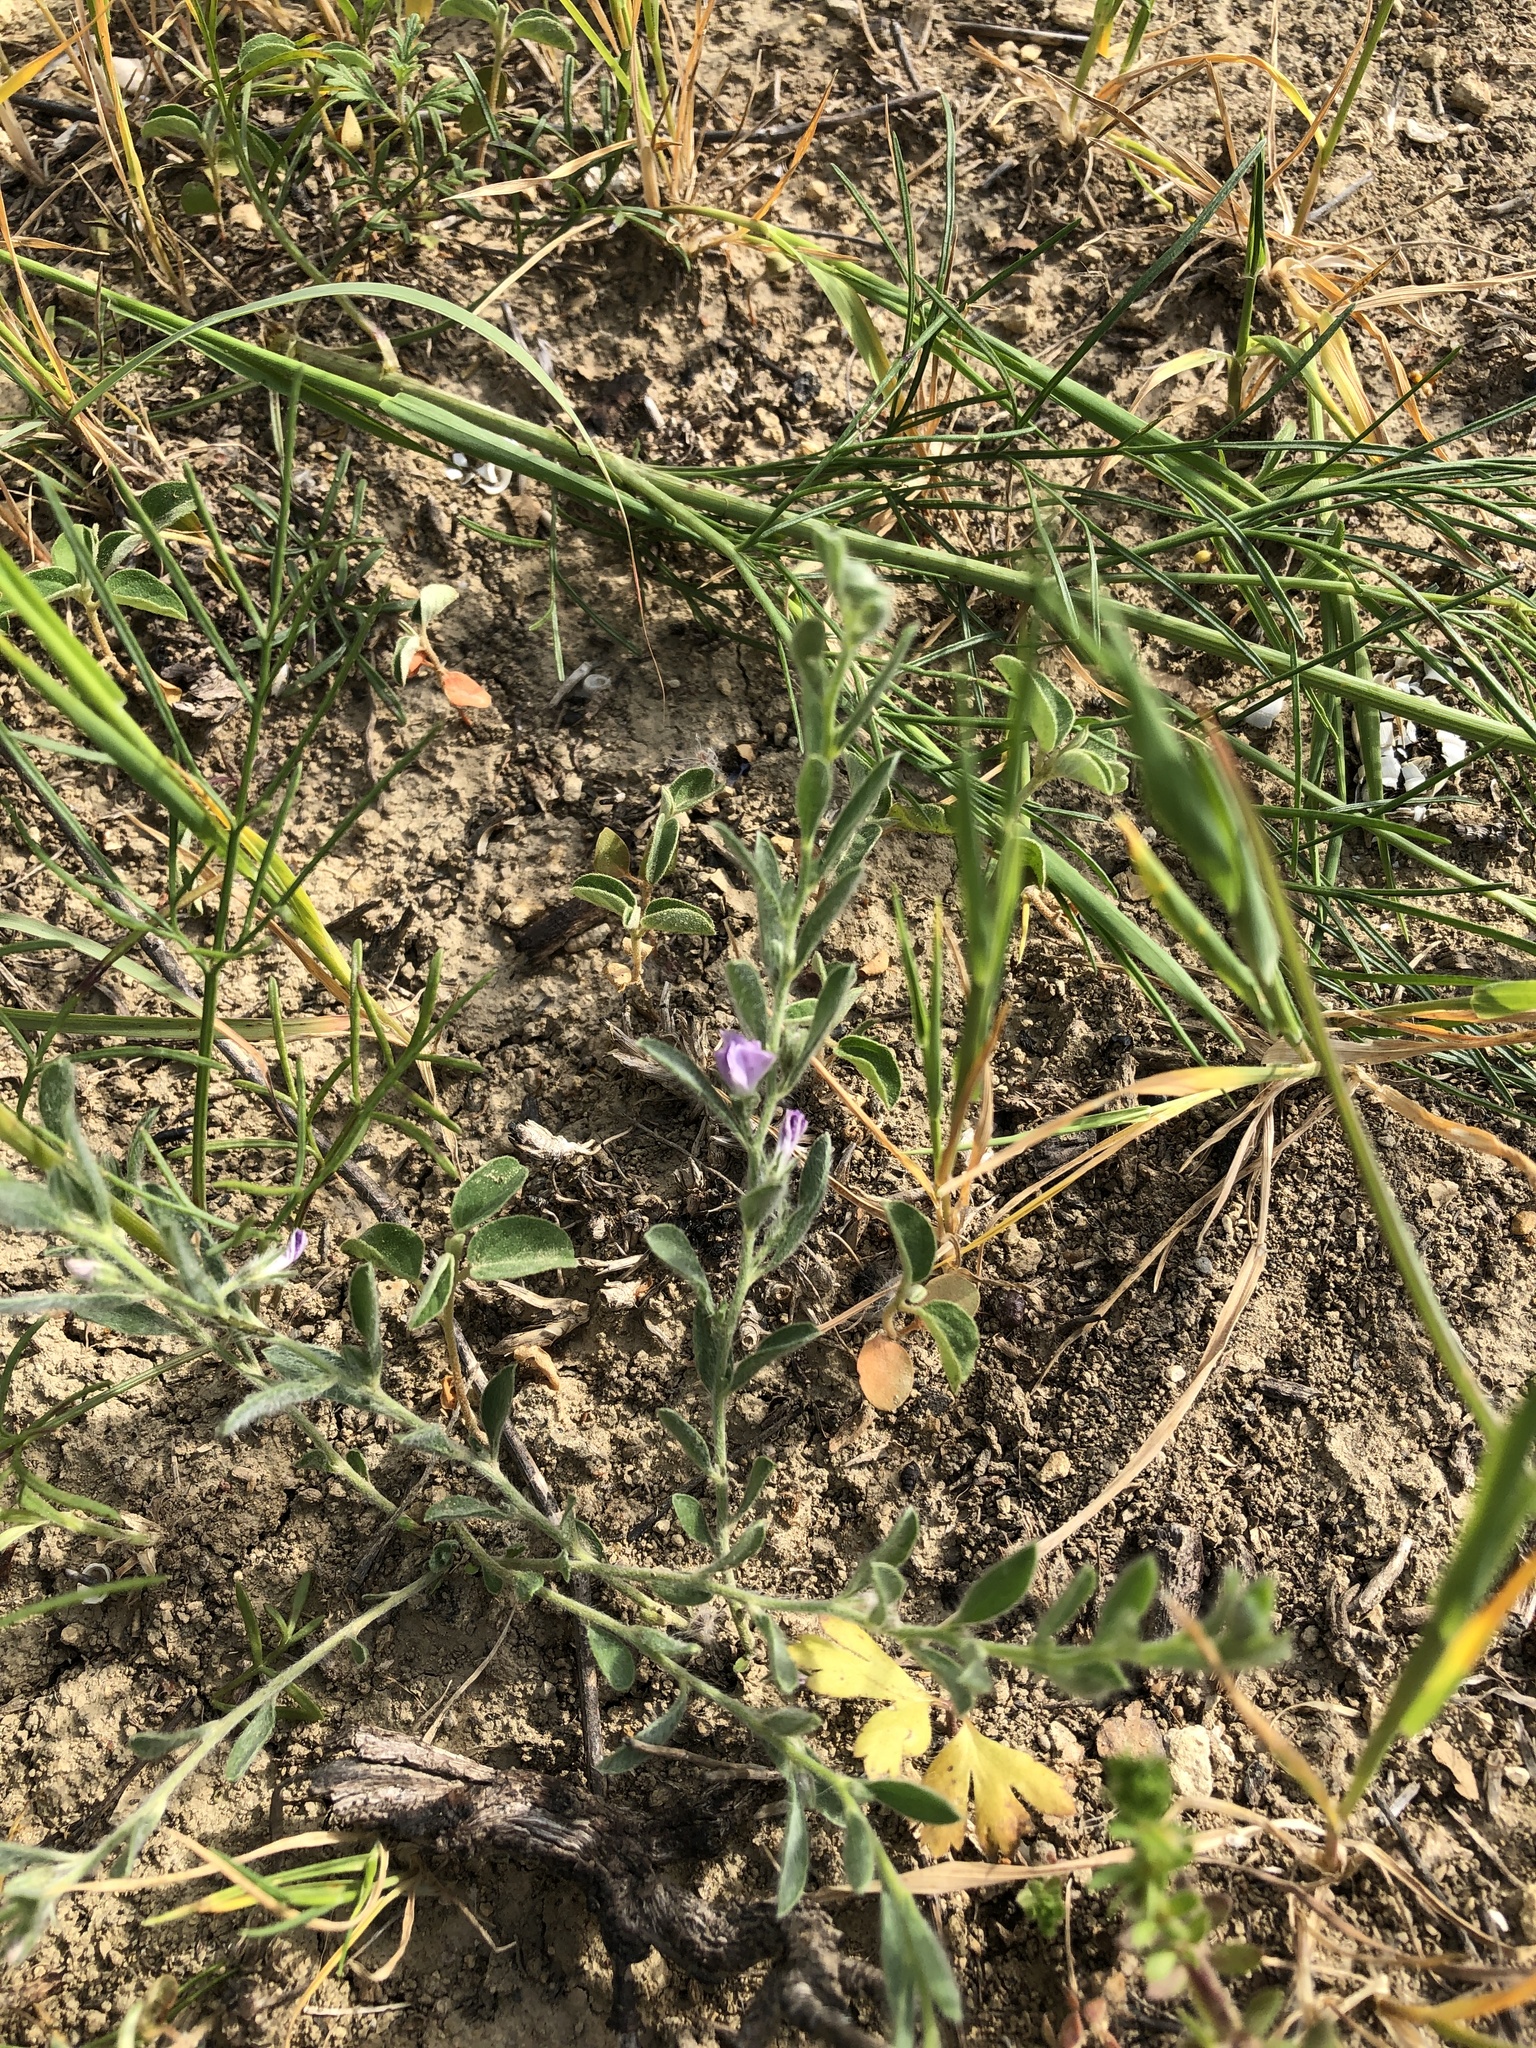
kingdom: Plantae
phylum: Tracheophyta
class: Magnoliopsida
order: Solanales
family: Convolvulaceae
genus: Evolvulus
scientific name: Evolvulus nuttallianus
